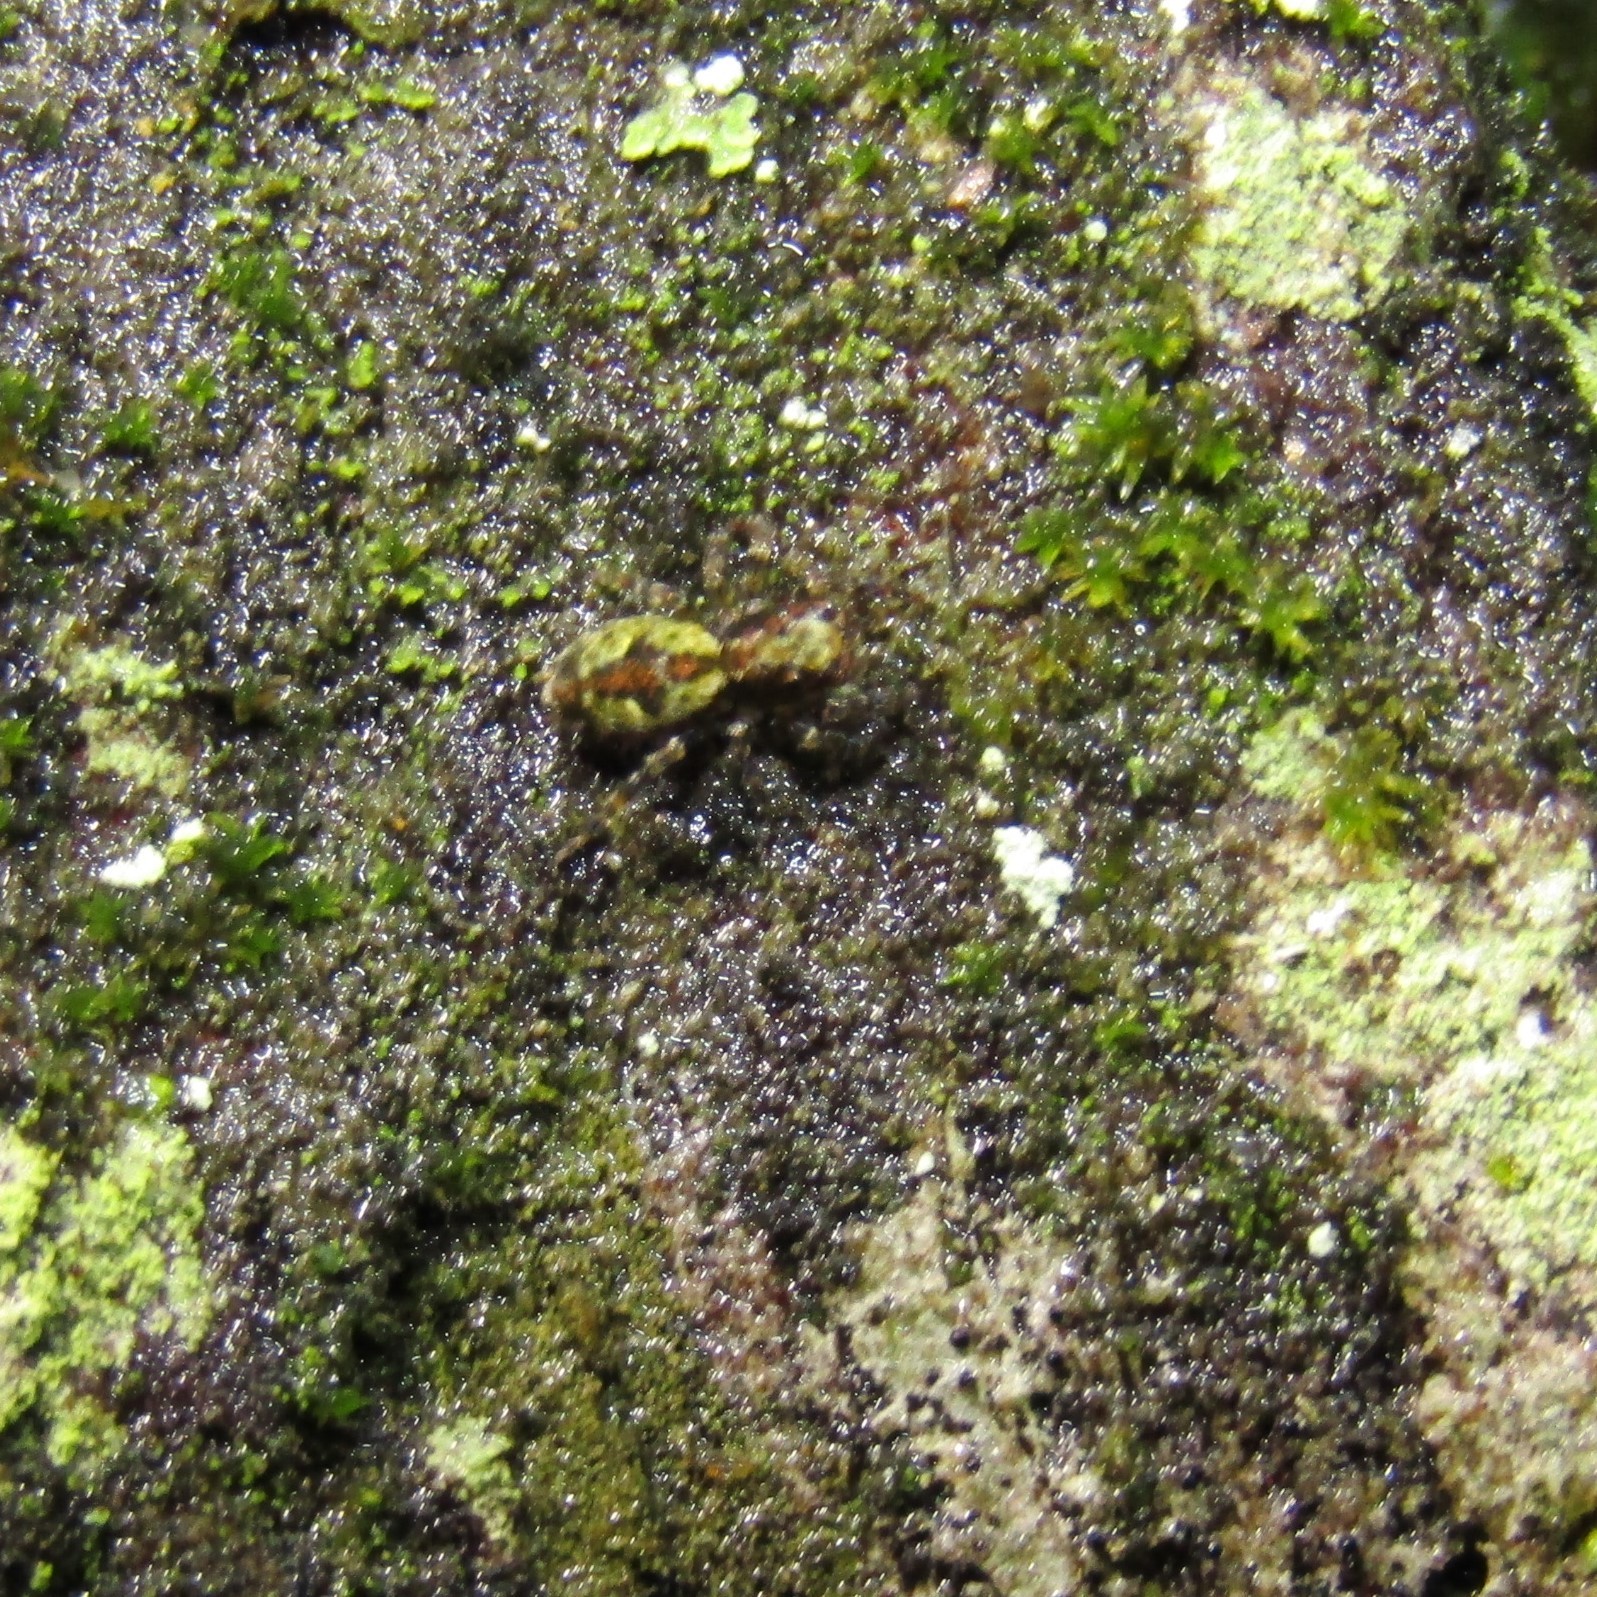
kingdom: Animalia
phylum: Arthropoda
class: Arachnida
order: Araneae
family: Salticidae
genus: Hinewaia
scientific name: Hinewaia embolica
